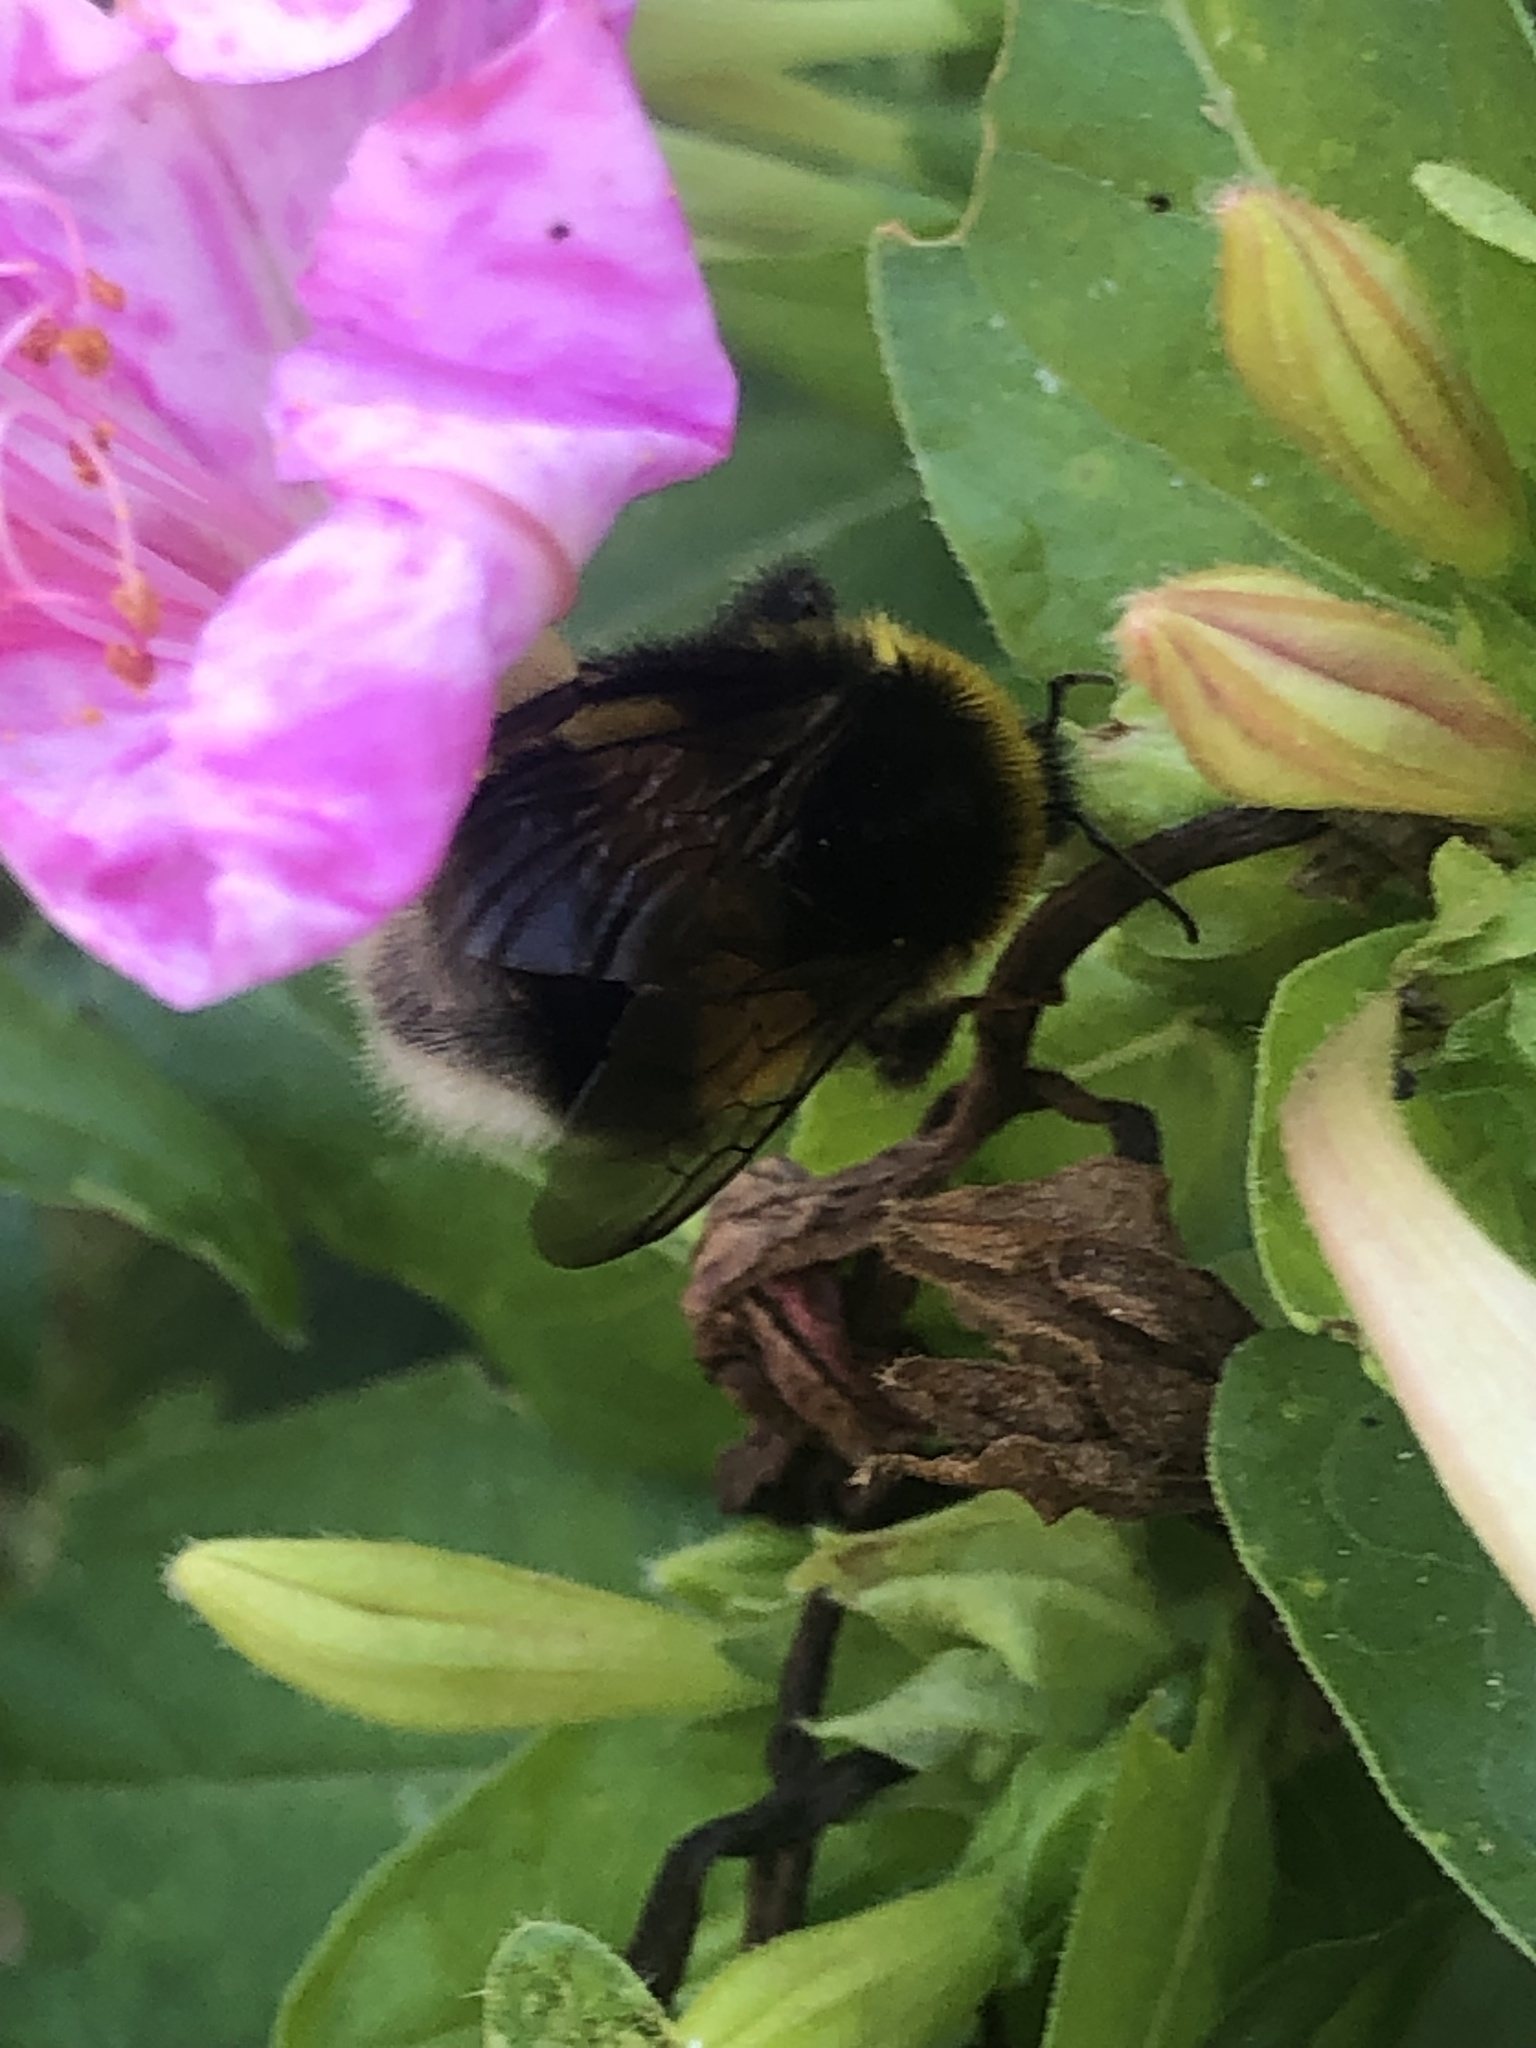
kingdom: Animalia
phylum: Arthropoda
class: Insecta
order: Hymenoptera
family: Apidae
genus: Bombus
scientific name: Bombus terrestris
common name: Buff-tailed bumblebee
